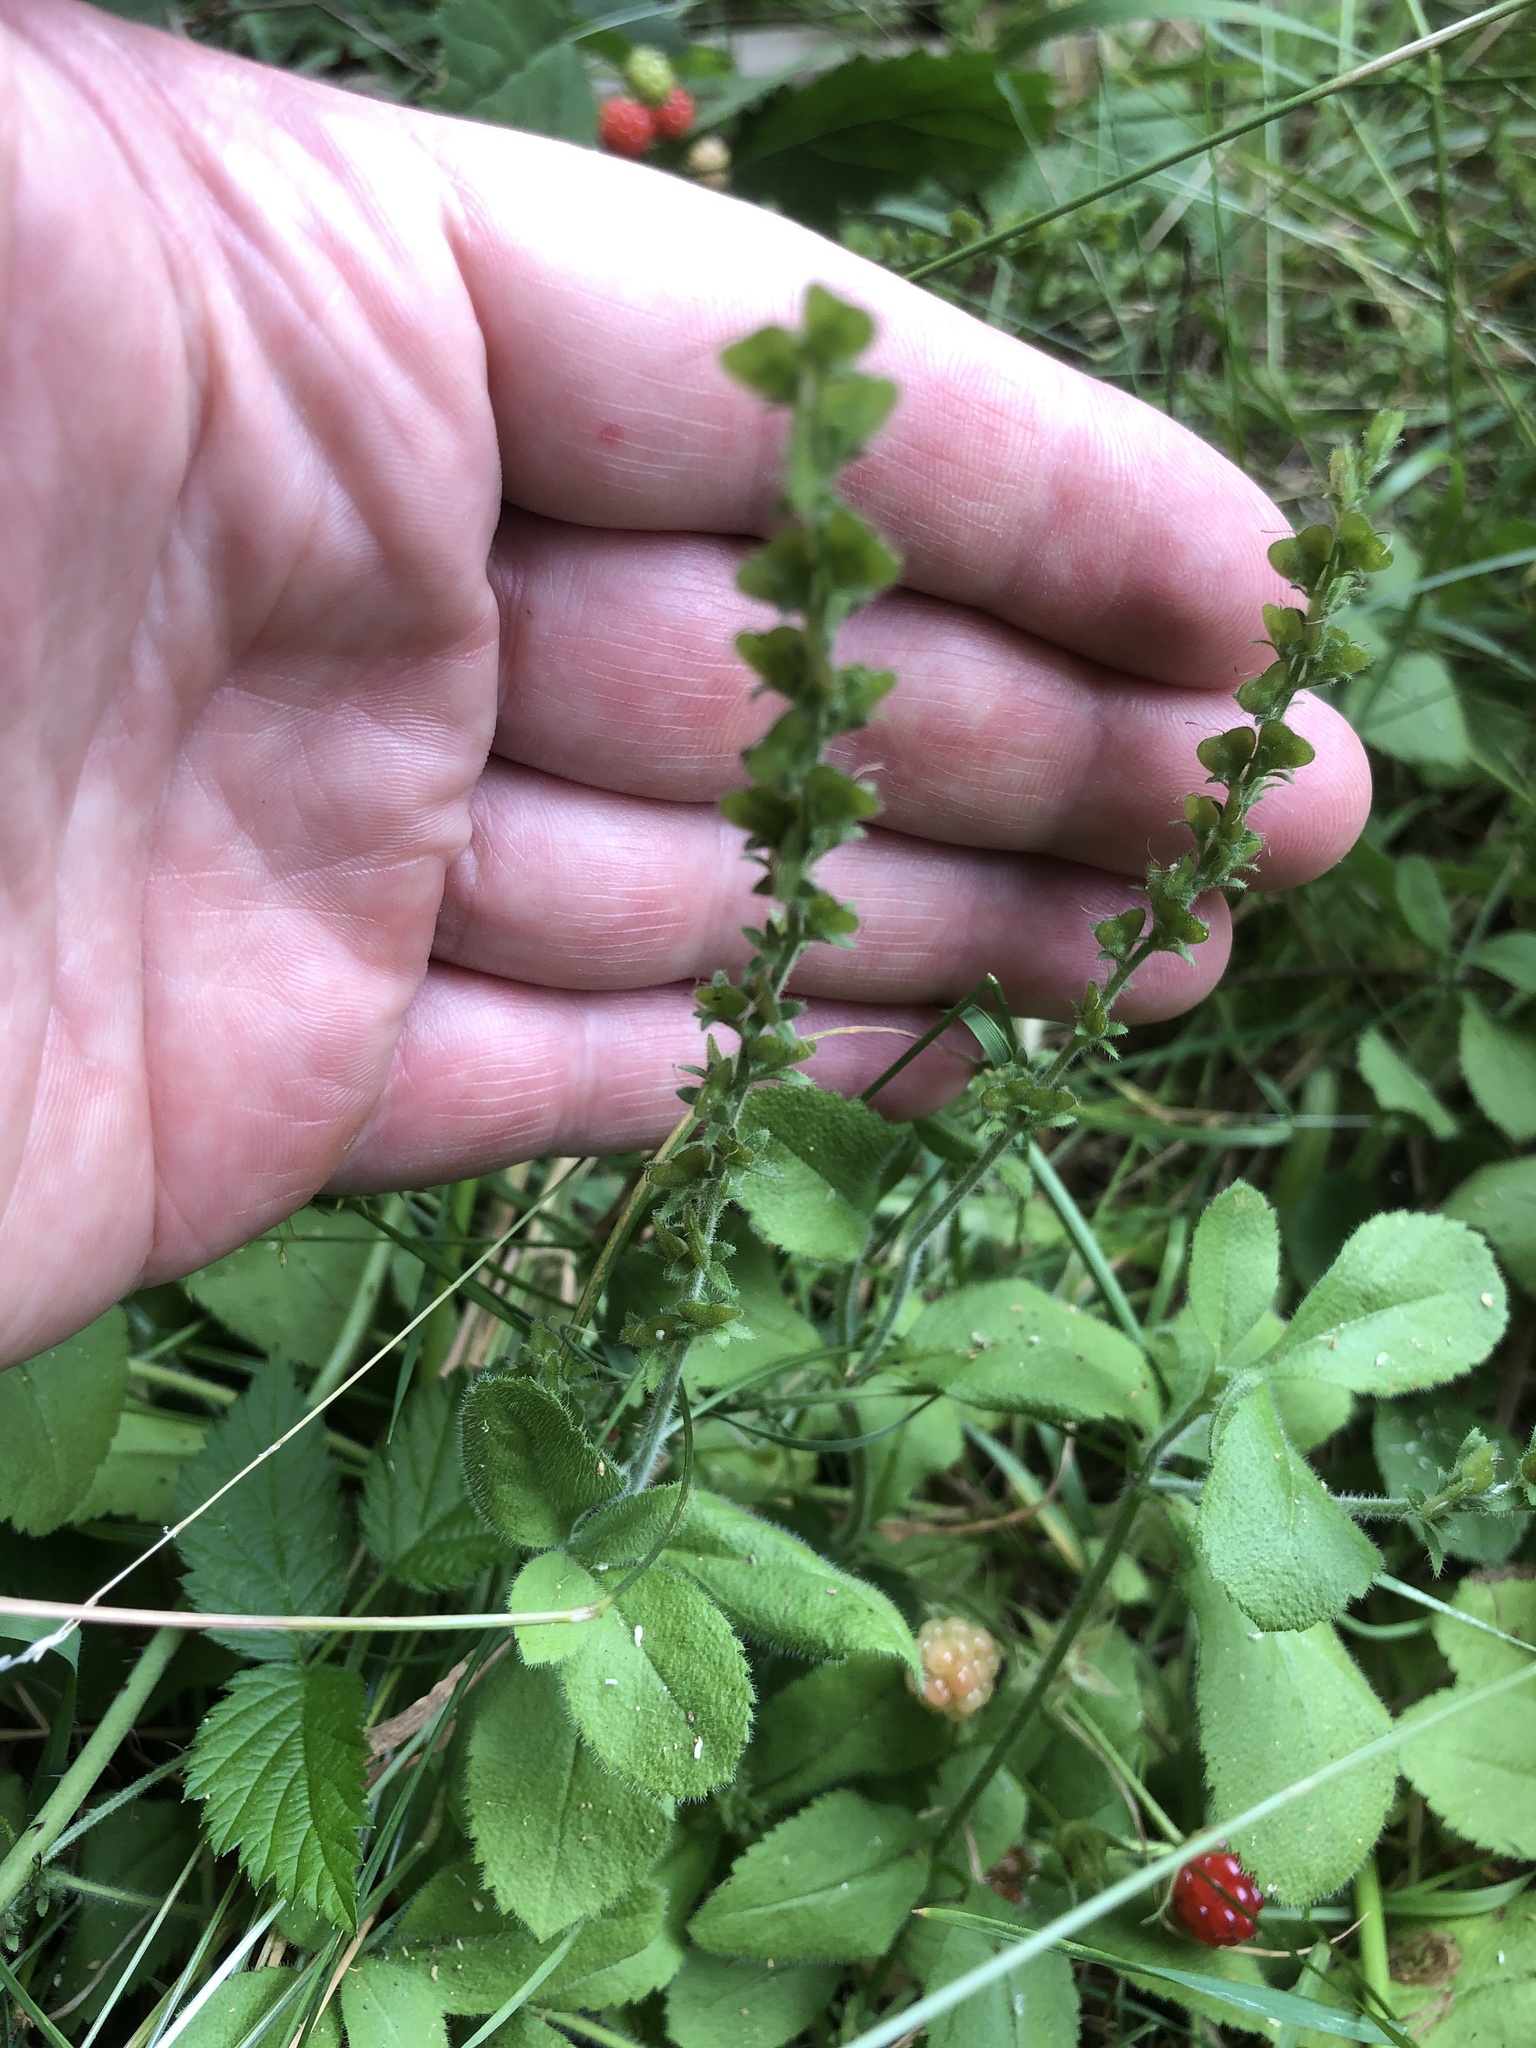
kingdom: Plantae
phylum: Tracheophyta
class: Magnoliopsida
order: Lamiales
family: Plantaginaceae
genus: Veronica
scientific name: Veronica officinalis
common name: Common speedwell
